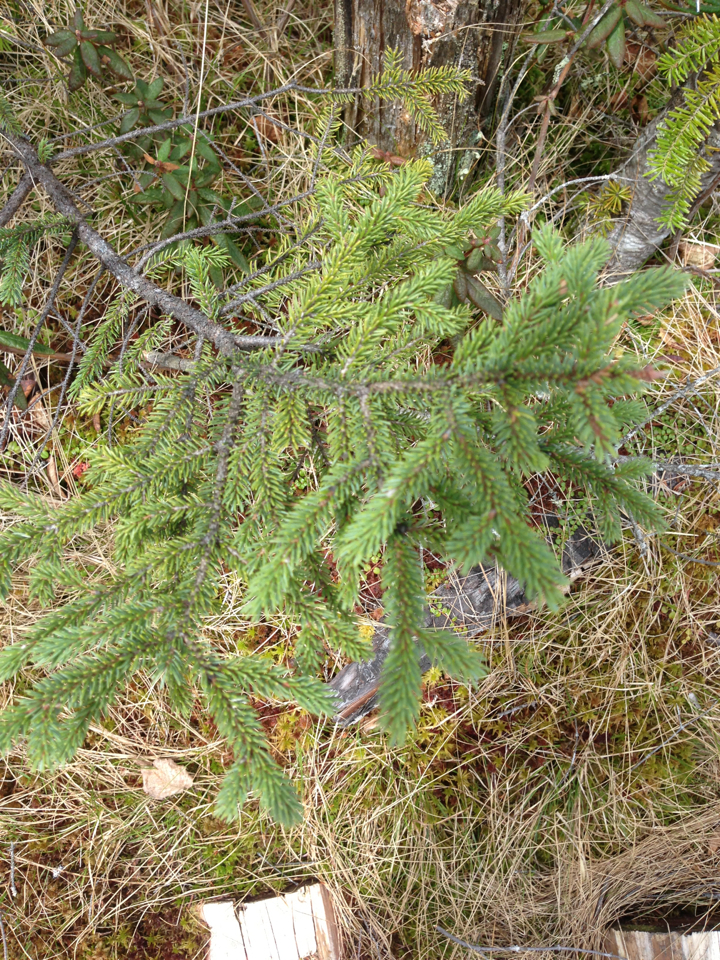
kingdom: Plantae
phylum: Tracheophyta
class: Pinopsida
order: Pinales
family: Pinaceae
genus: Picea
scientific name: Picea mariana
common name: Black spruce
